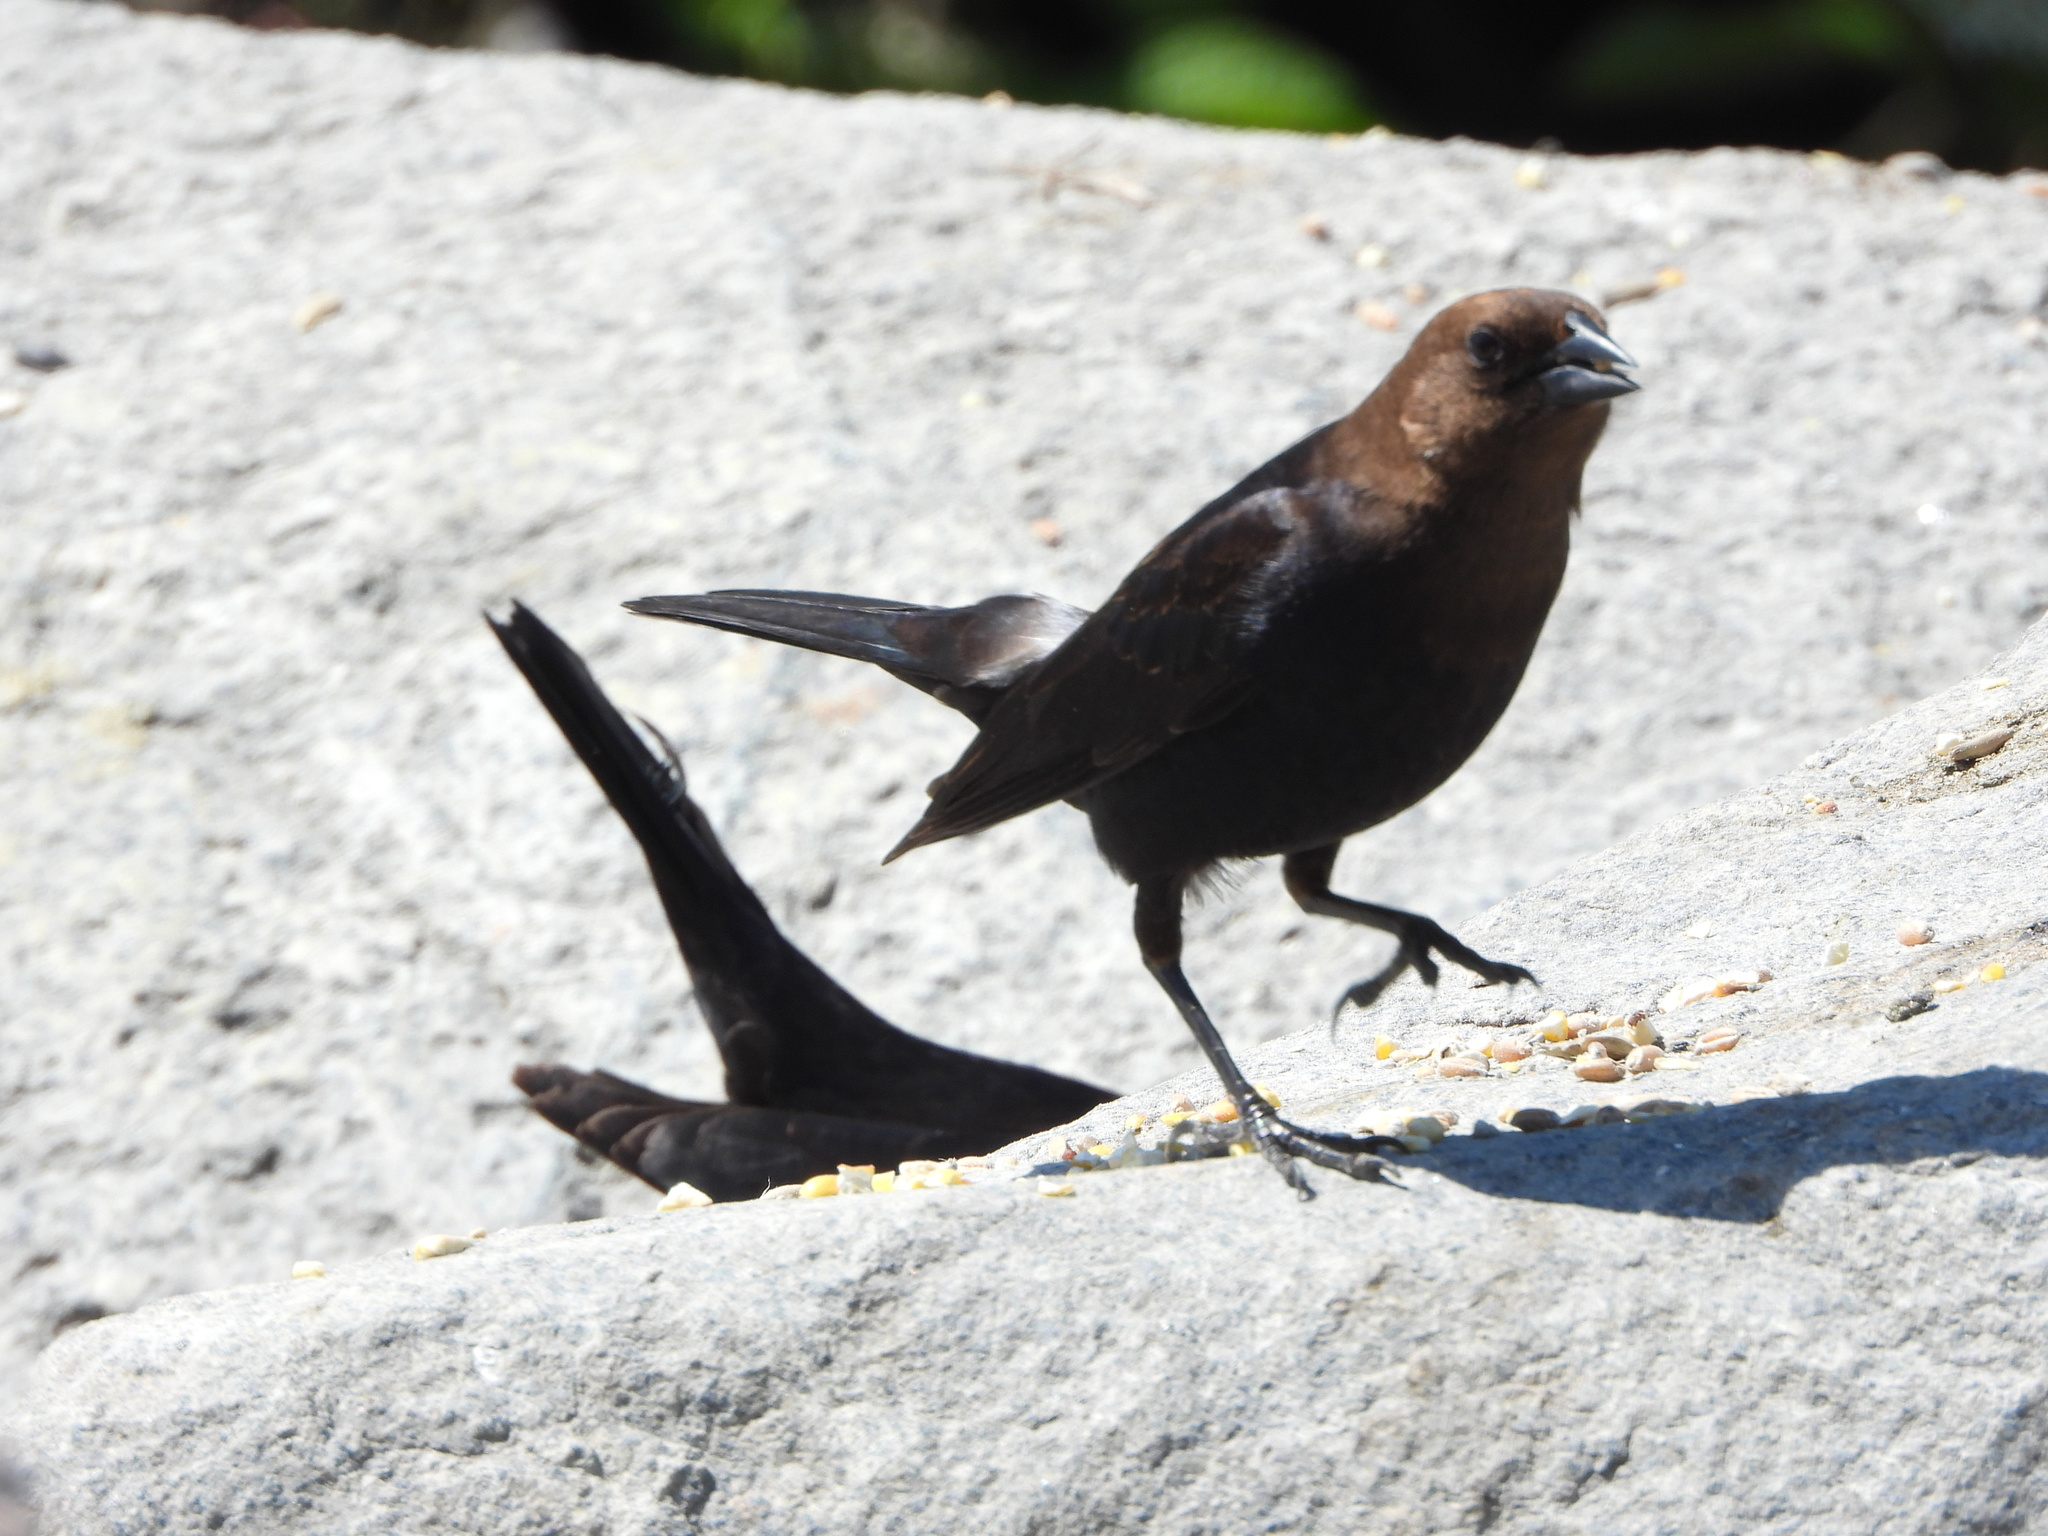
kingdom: Animalia
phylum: Chordata
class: Aves
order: Passeriformes
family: Icteridae
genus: Molothrus
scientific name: Molothrus ater
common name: Brown-headed cowbird
